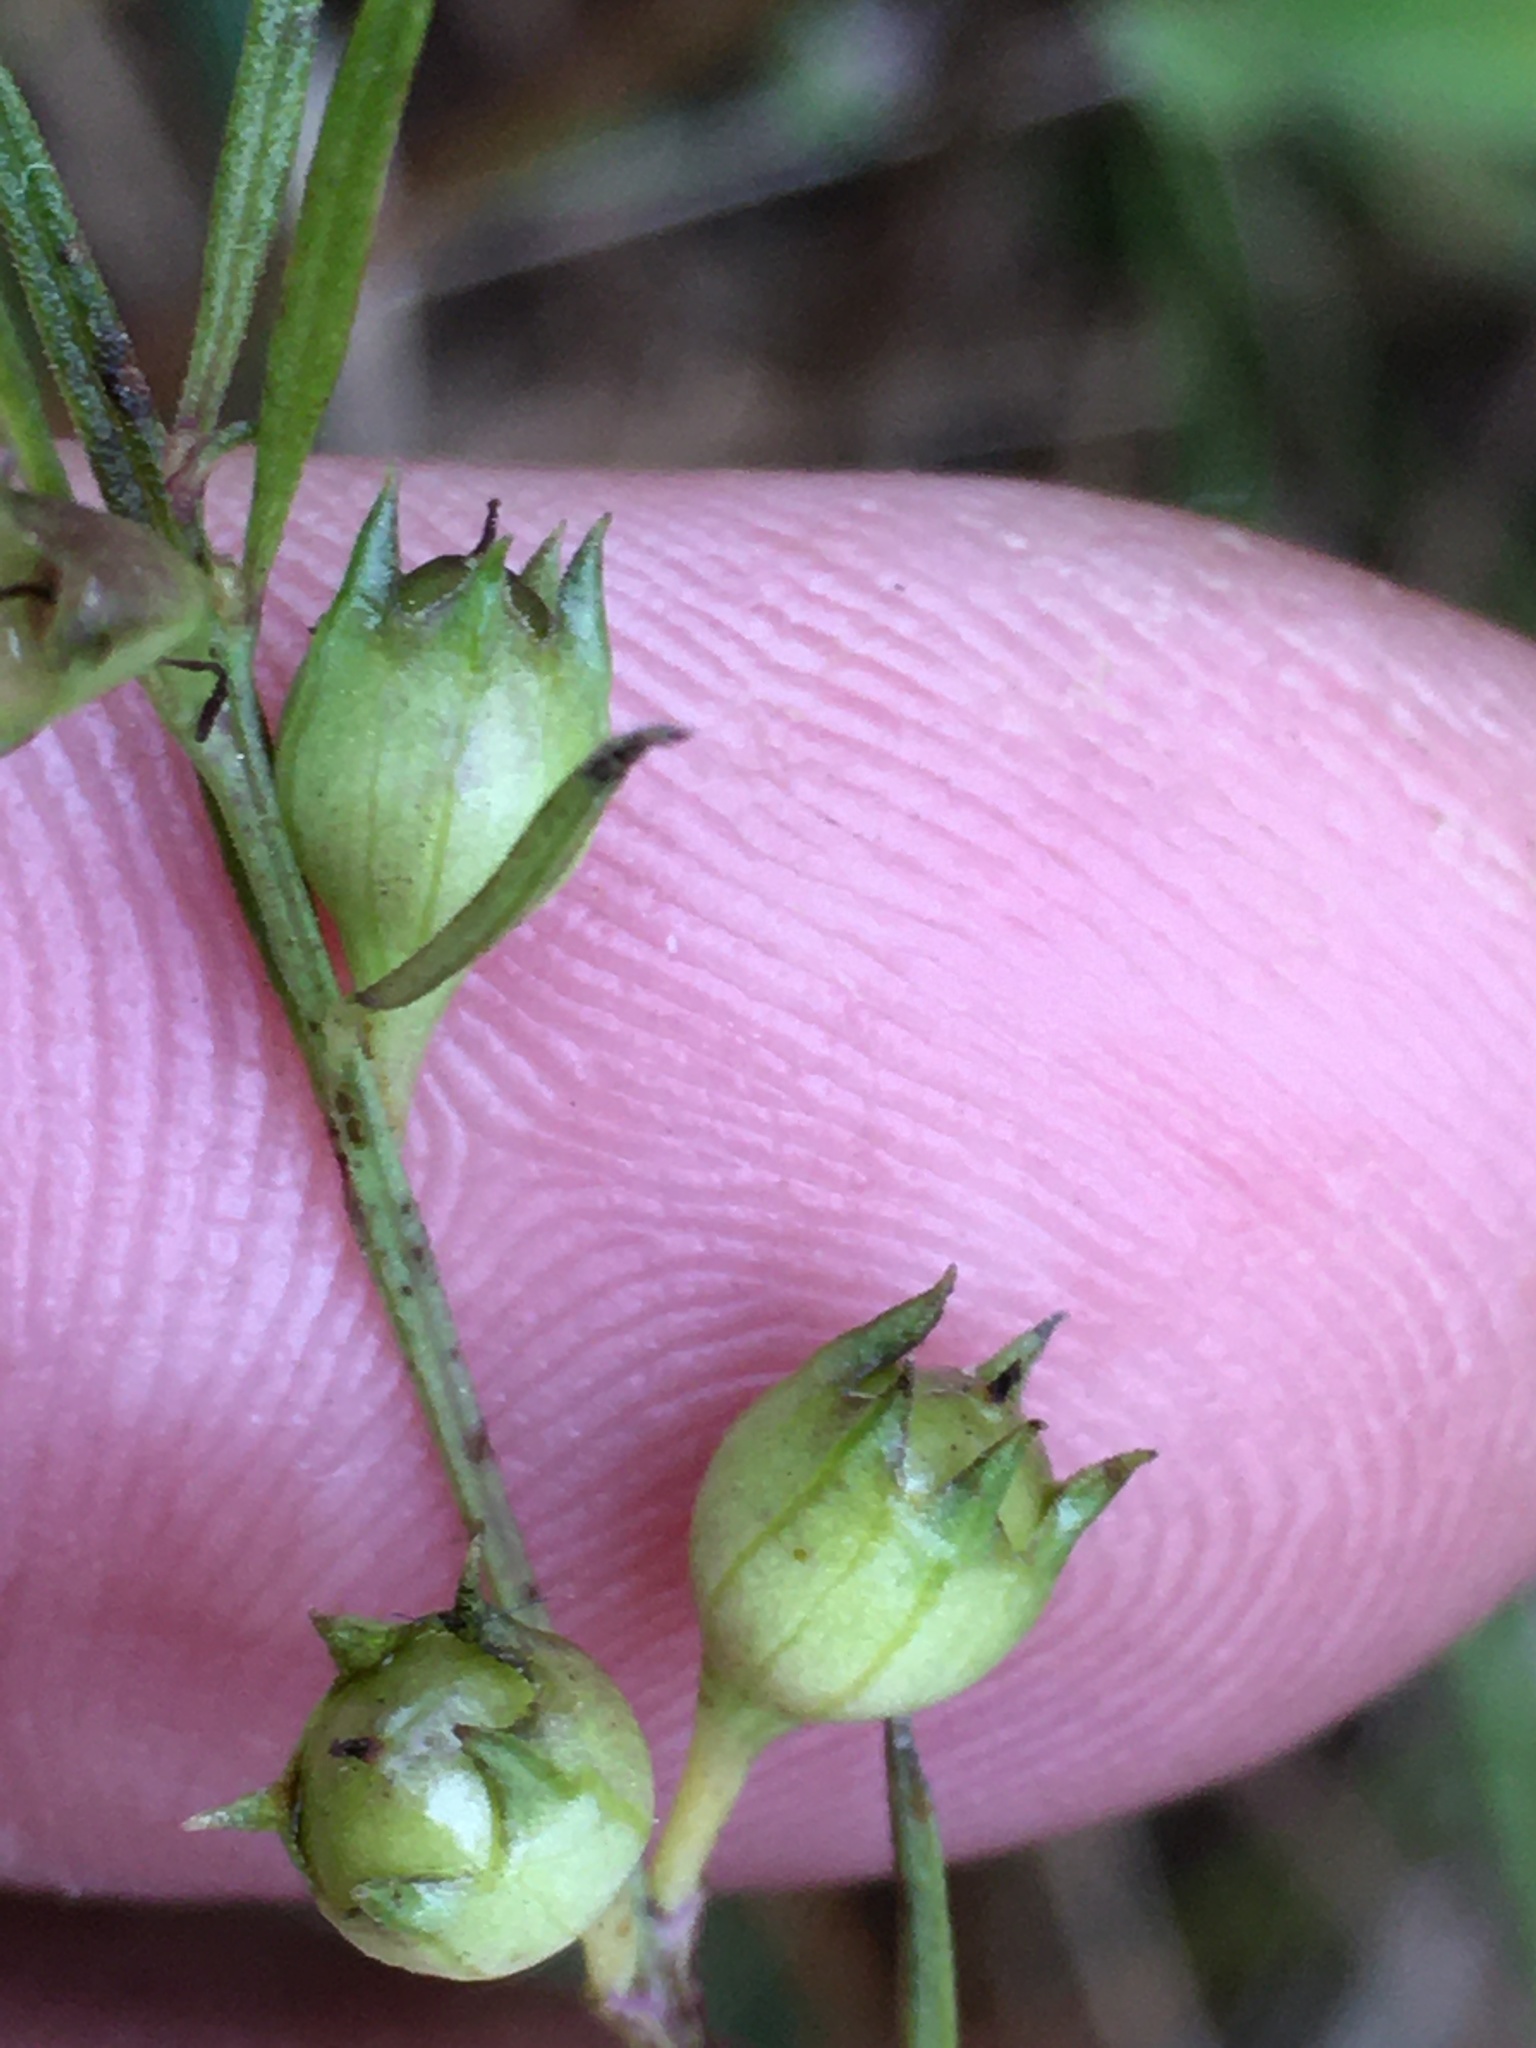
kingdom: Plantae
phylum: Tracheophyta
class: Magnoliopsida
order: Lamiales
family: Orobanchaceae
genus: Agalinis
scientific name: Agalinis purpurea
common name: Purple false foxglove
